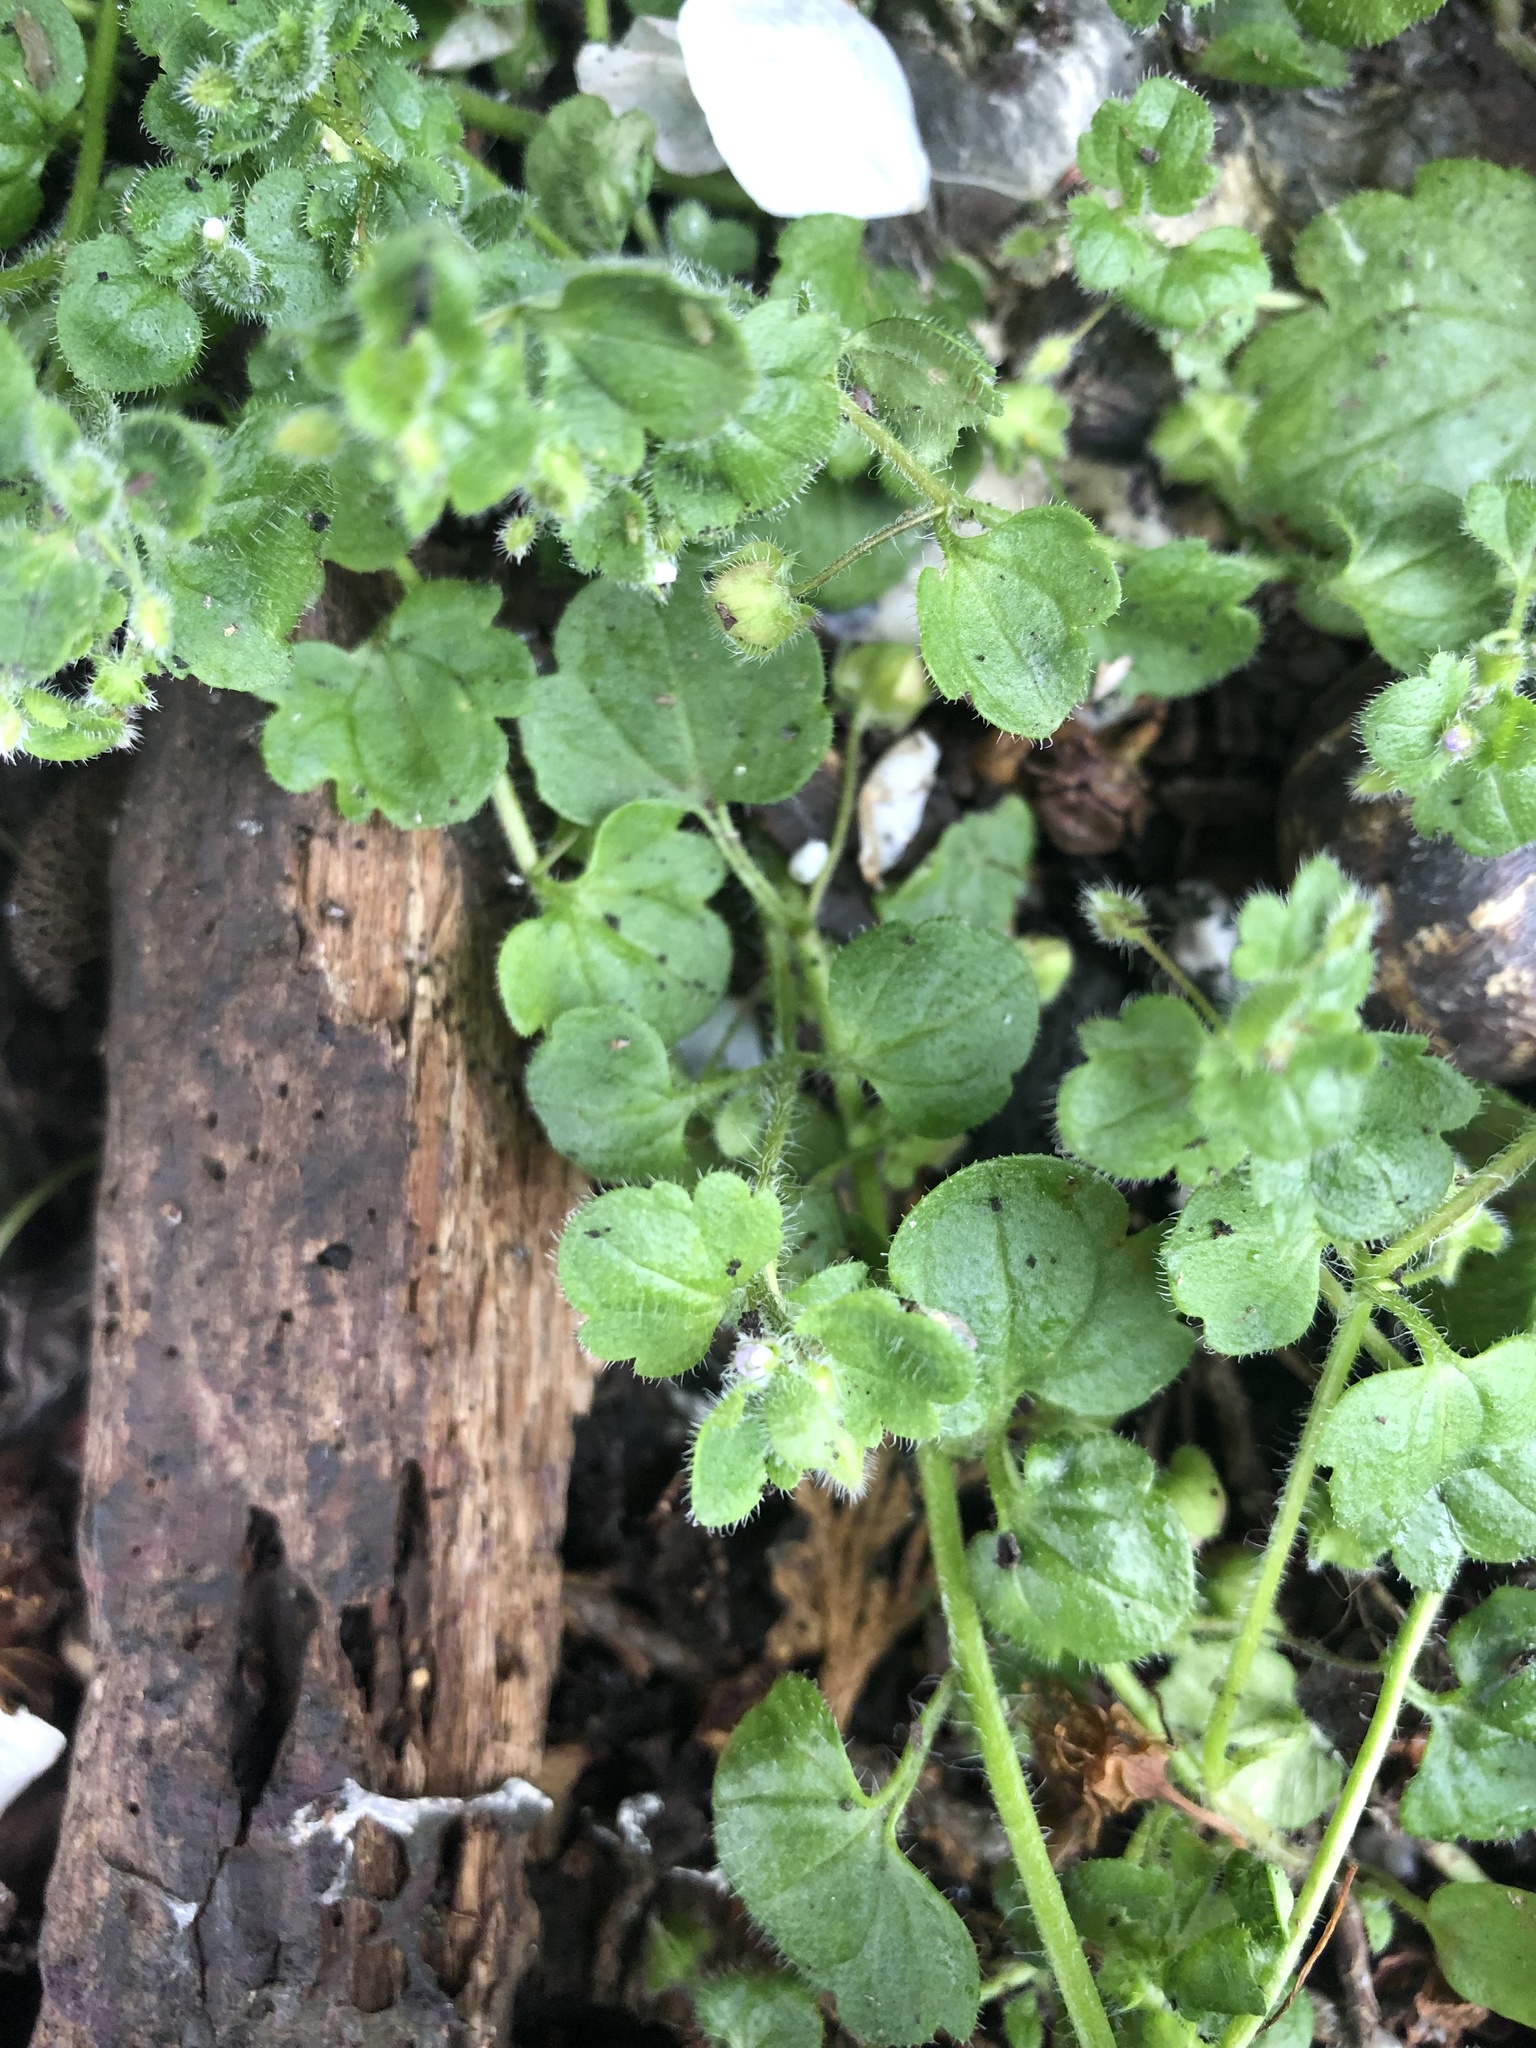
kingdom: Plantae
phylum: Tracheophyta
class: Magnoliopsida
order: Lamiales
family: Plantaginaceae
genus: Veronica
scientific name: Veronica sublobata
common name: False ivy-leaved speedwell
